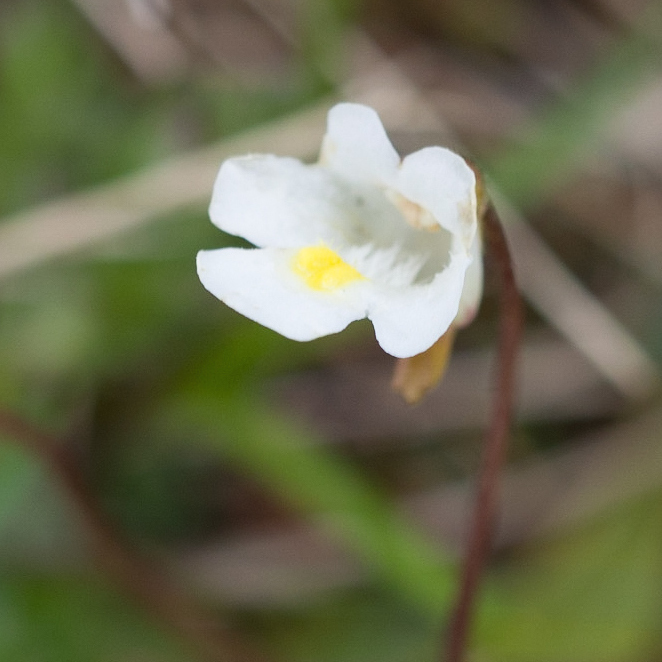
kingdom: Plantae
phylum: Tracheophyta
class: Magnoliopsida
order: Lamiales
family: Lentibulariaceae
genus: Pinguicula
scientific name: Pinguicula alpina
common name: Alpine butterwort
